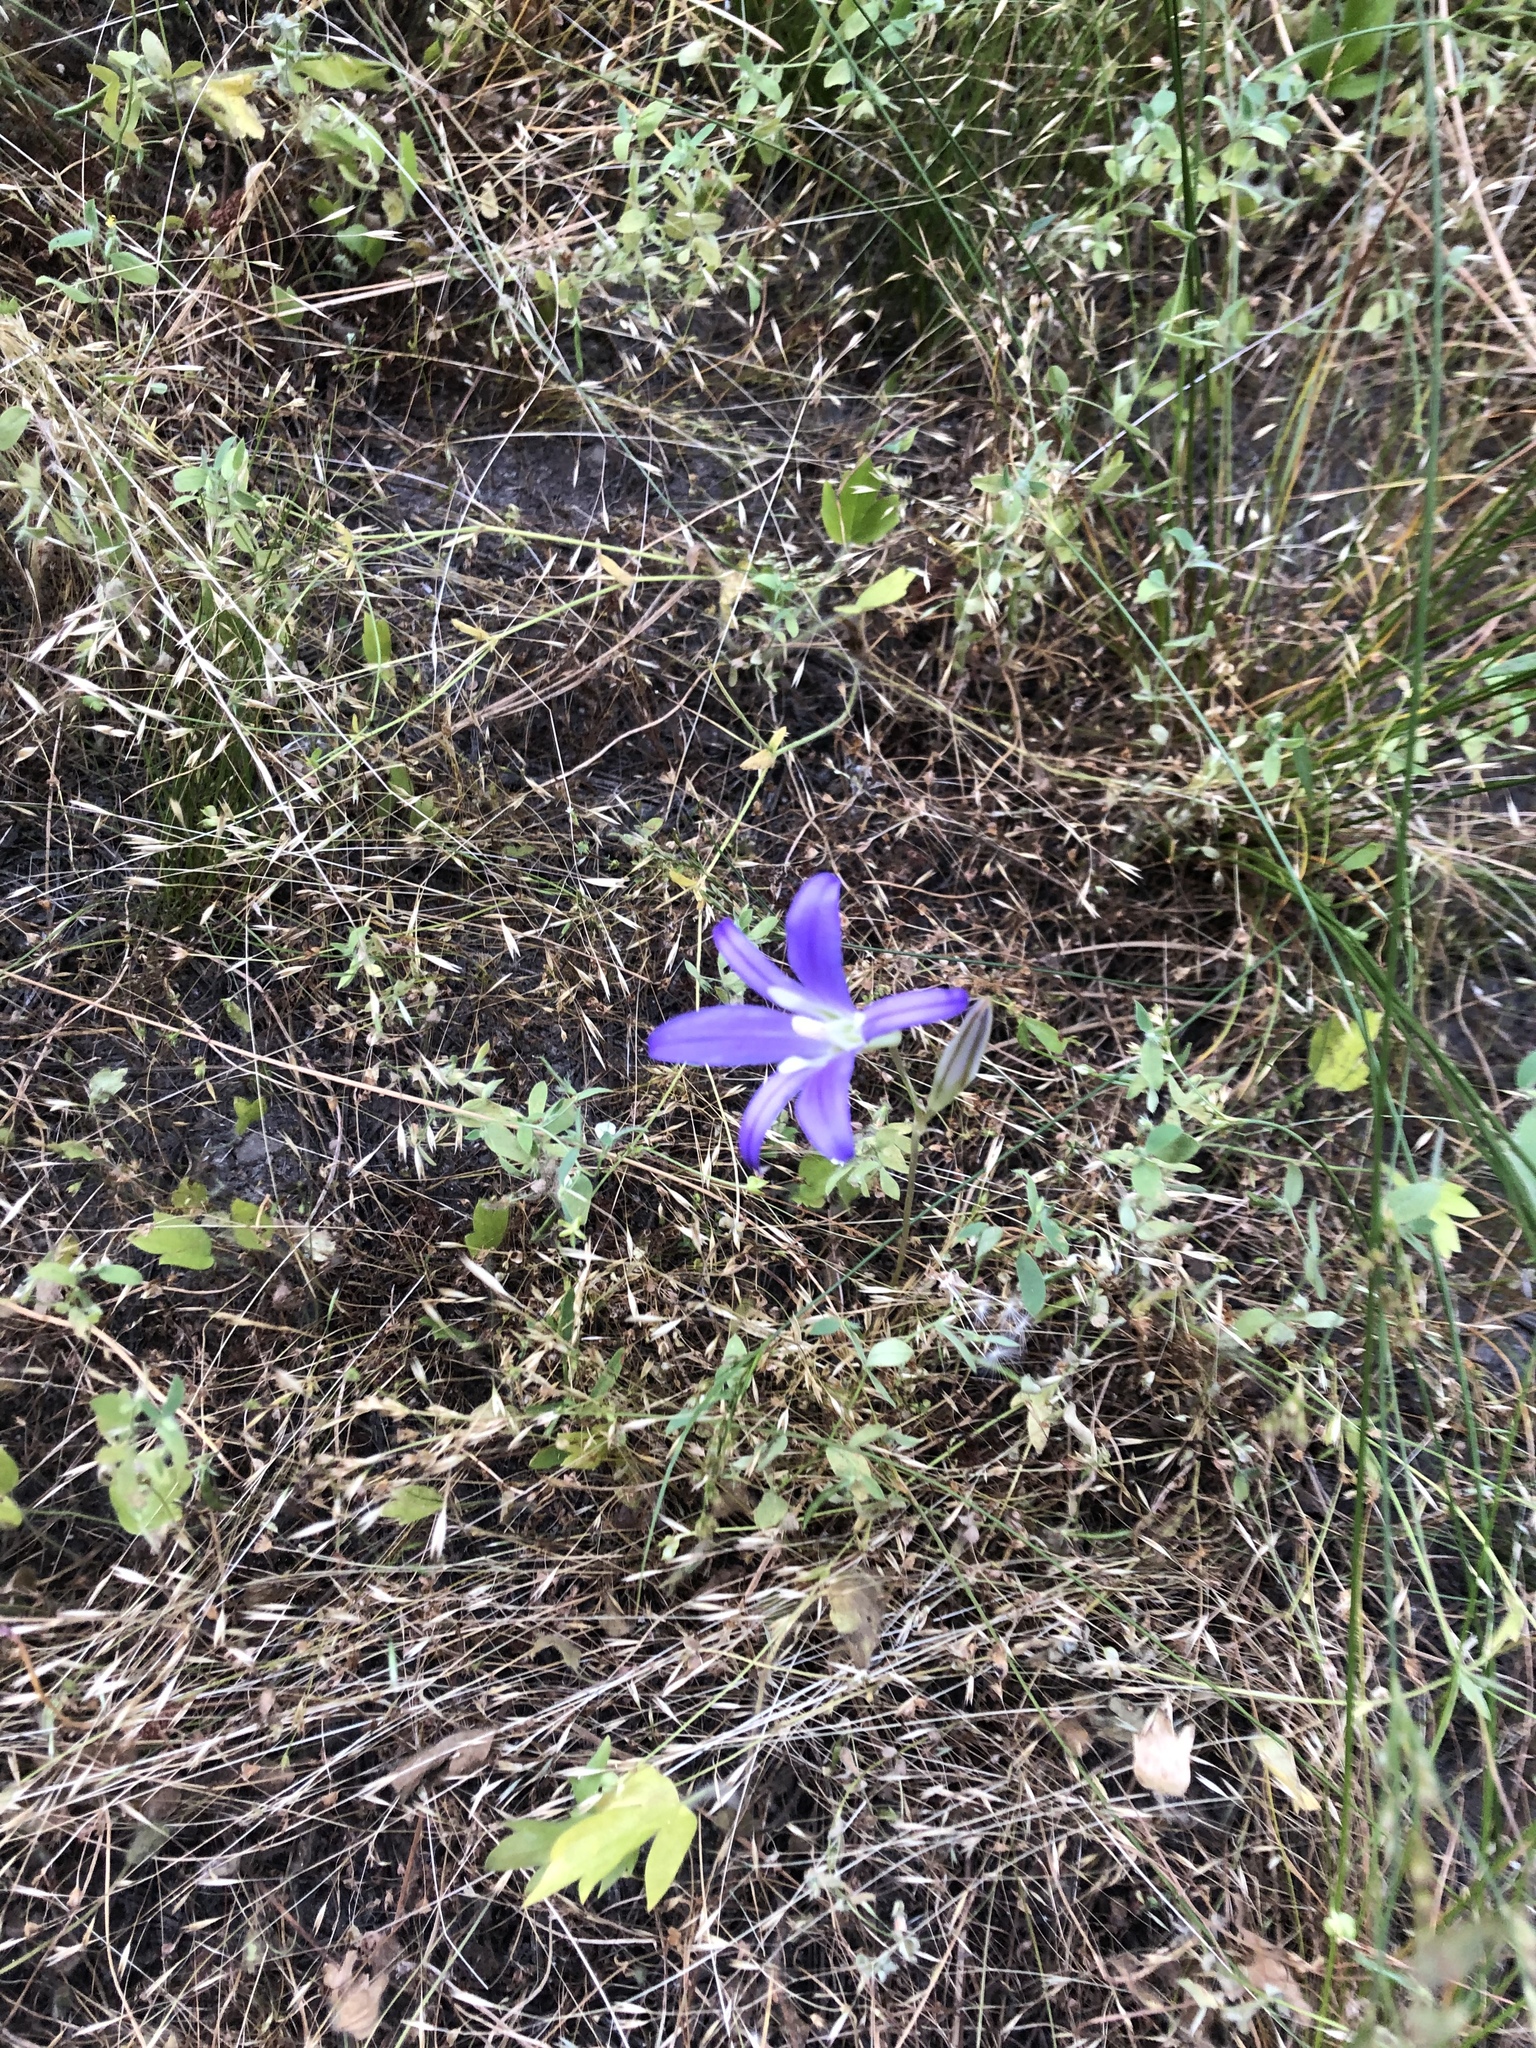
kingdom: Plantae
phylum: Tracheophyta
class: Liliopsida
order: Asparagales
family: Asparagaceae
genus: Brodiaea
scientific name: Brodiaea elegans
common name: Elegant cluster-lily
